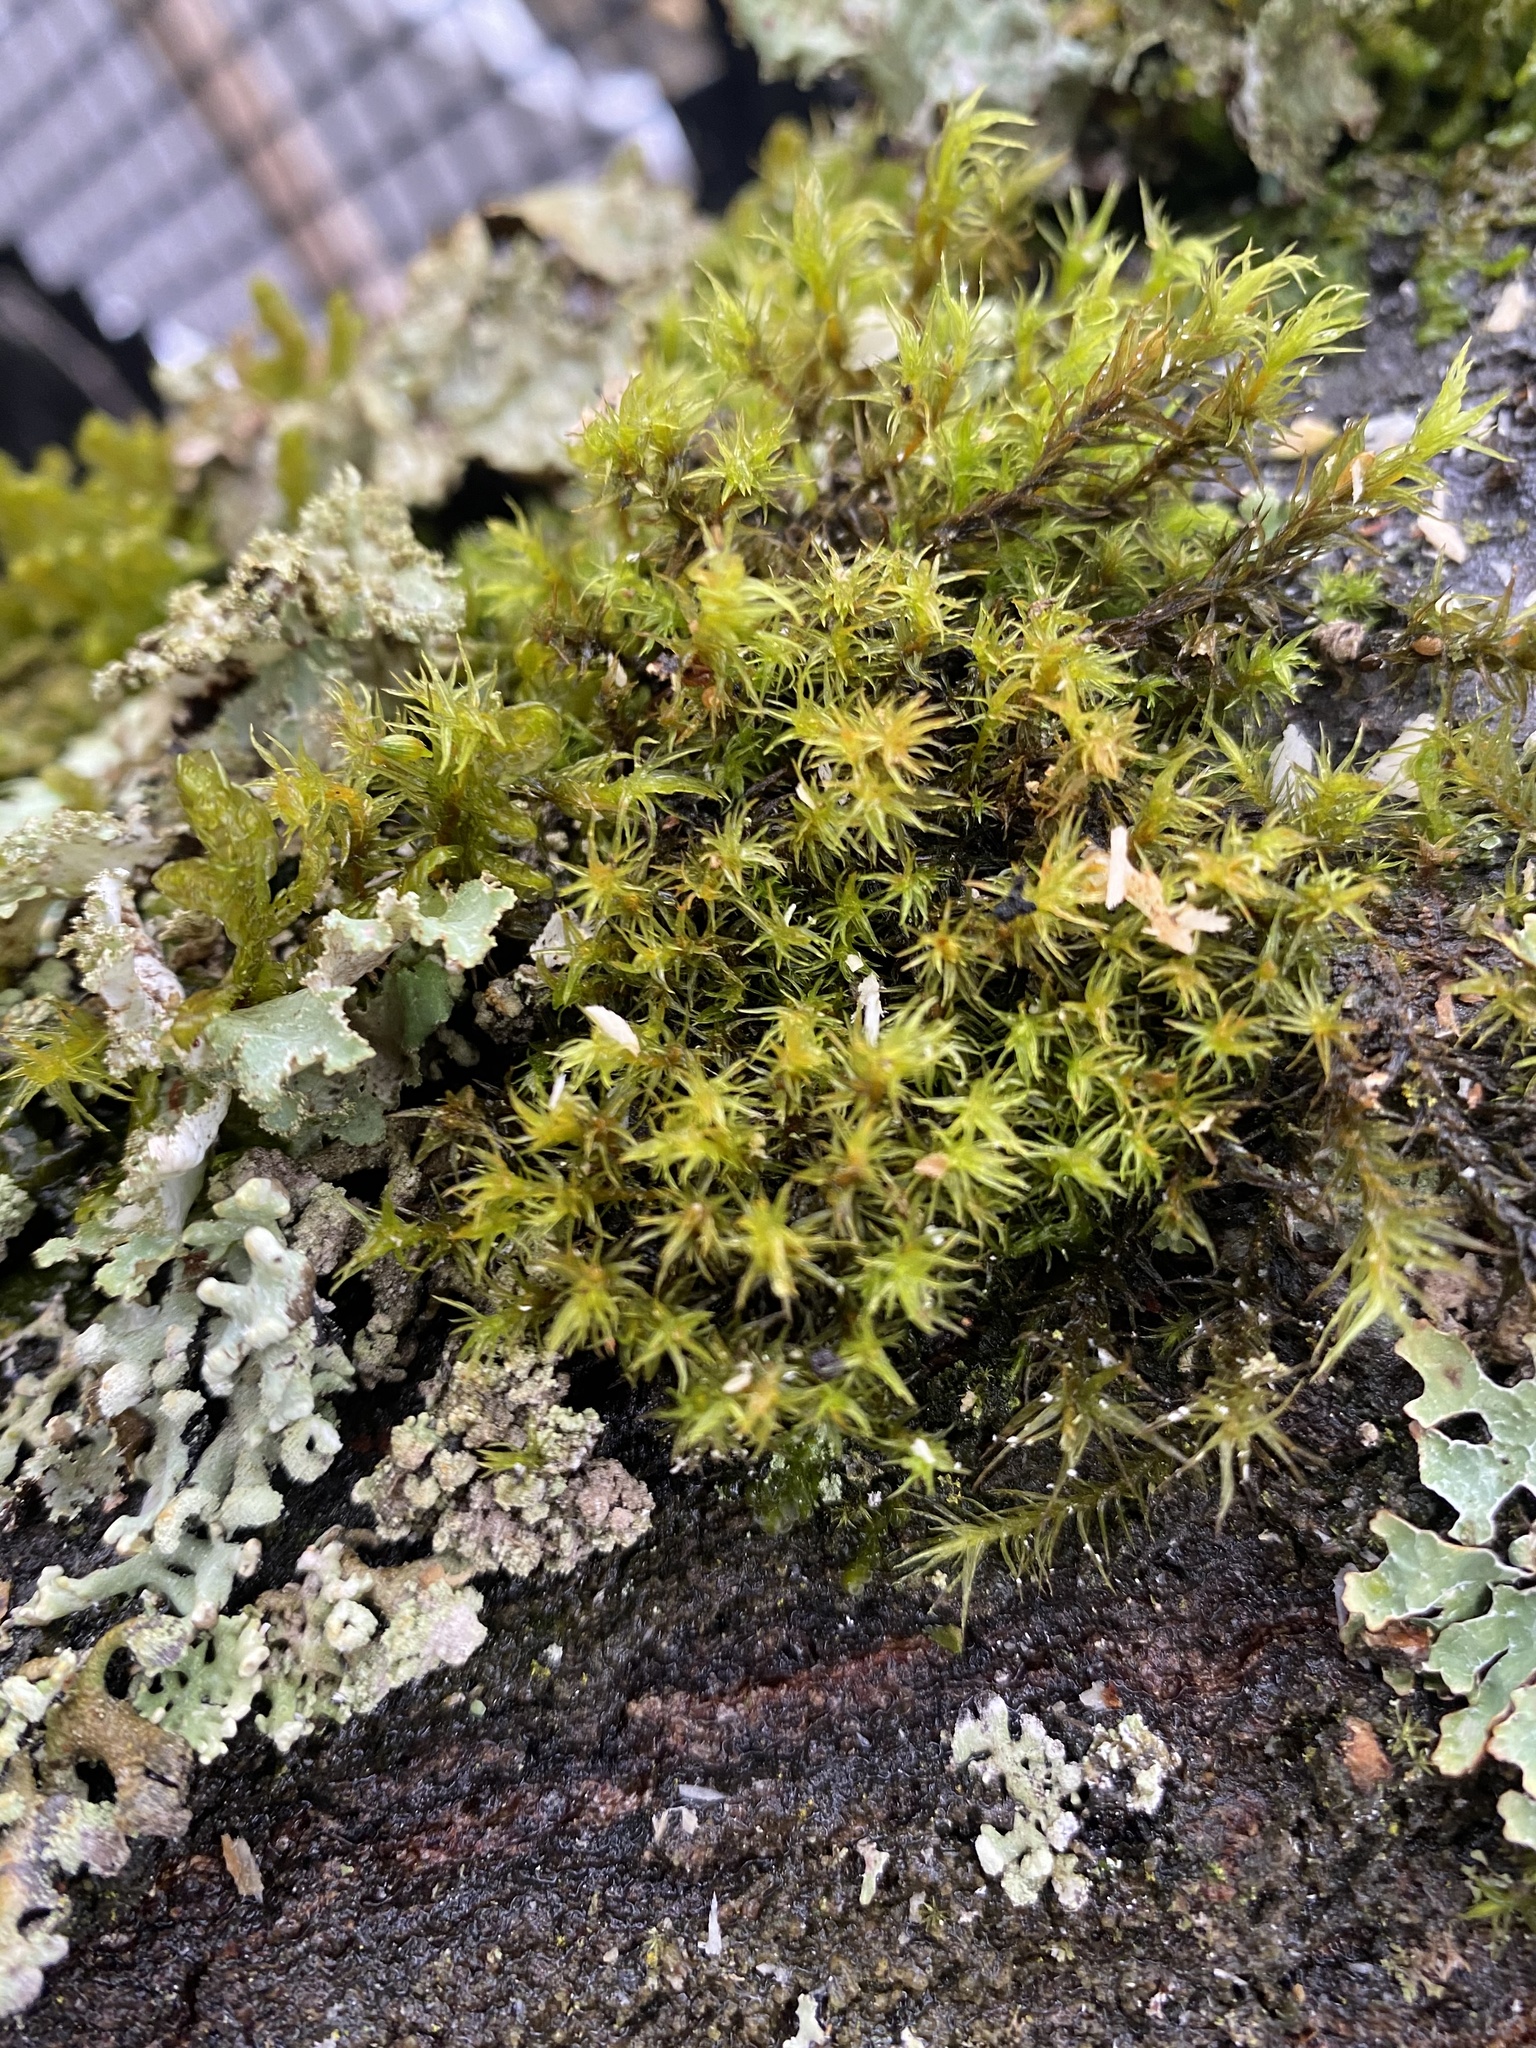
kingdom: Plantae
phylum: Bryophyta
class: Bryopsida
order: Orthotrichales
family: Orthotrichaceae
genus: Pulvigera
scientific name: Pulvigera lyellii
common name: Lyell's bristle-moss
